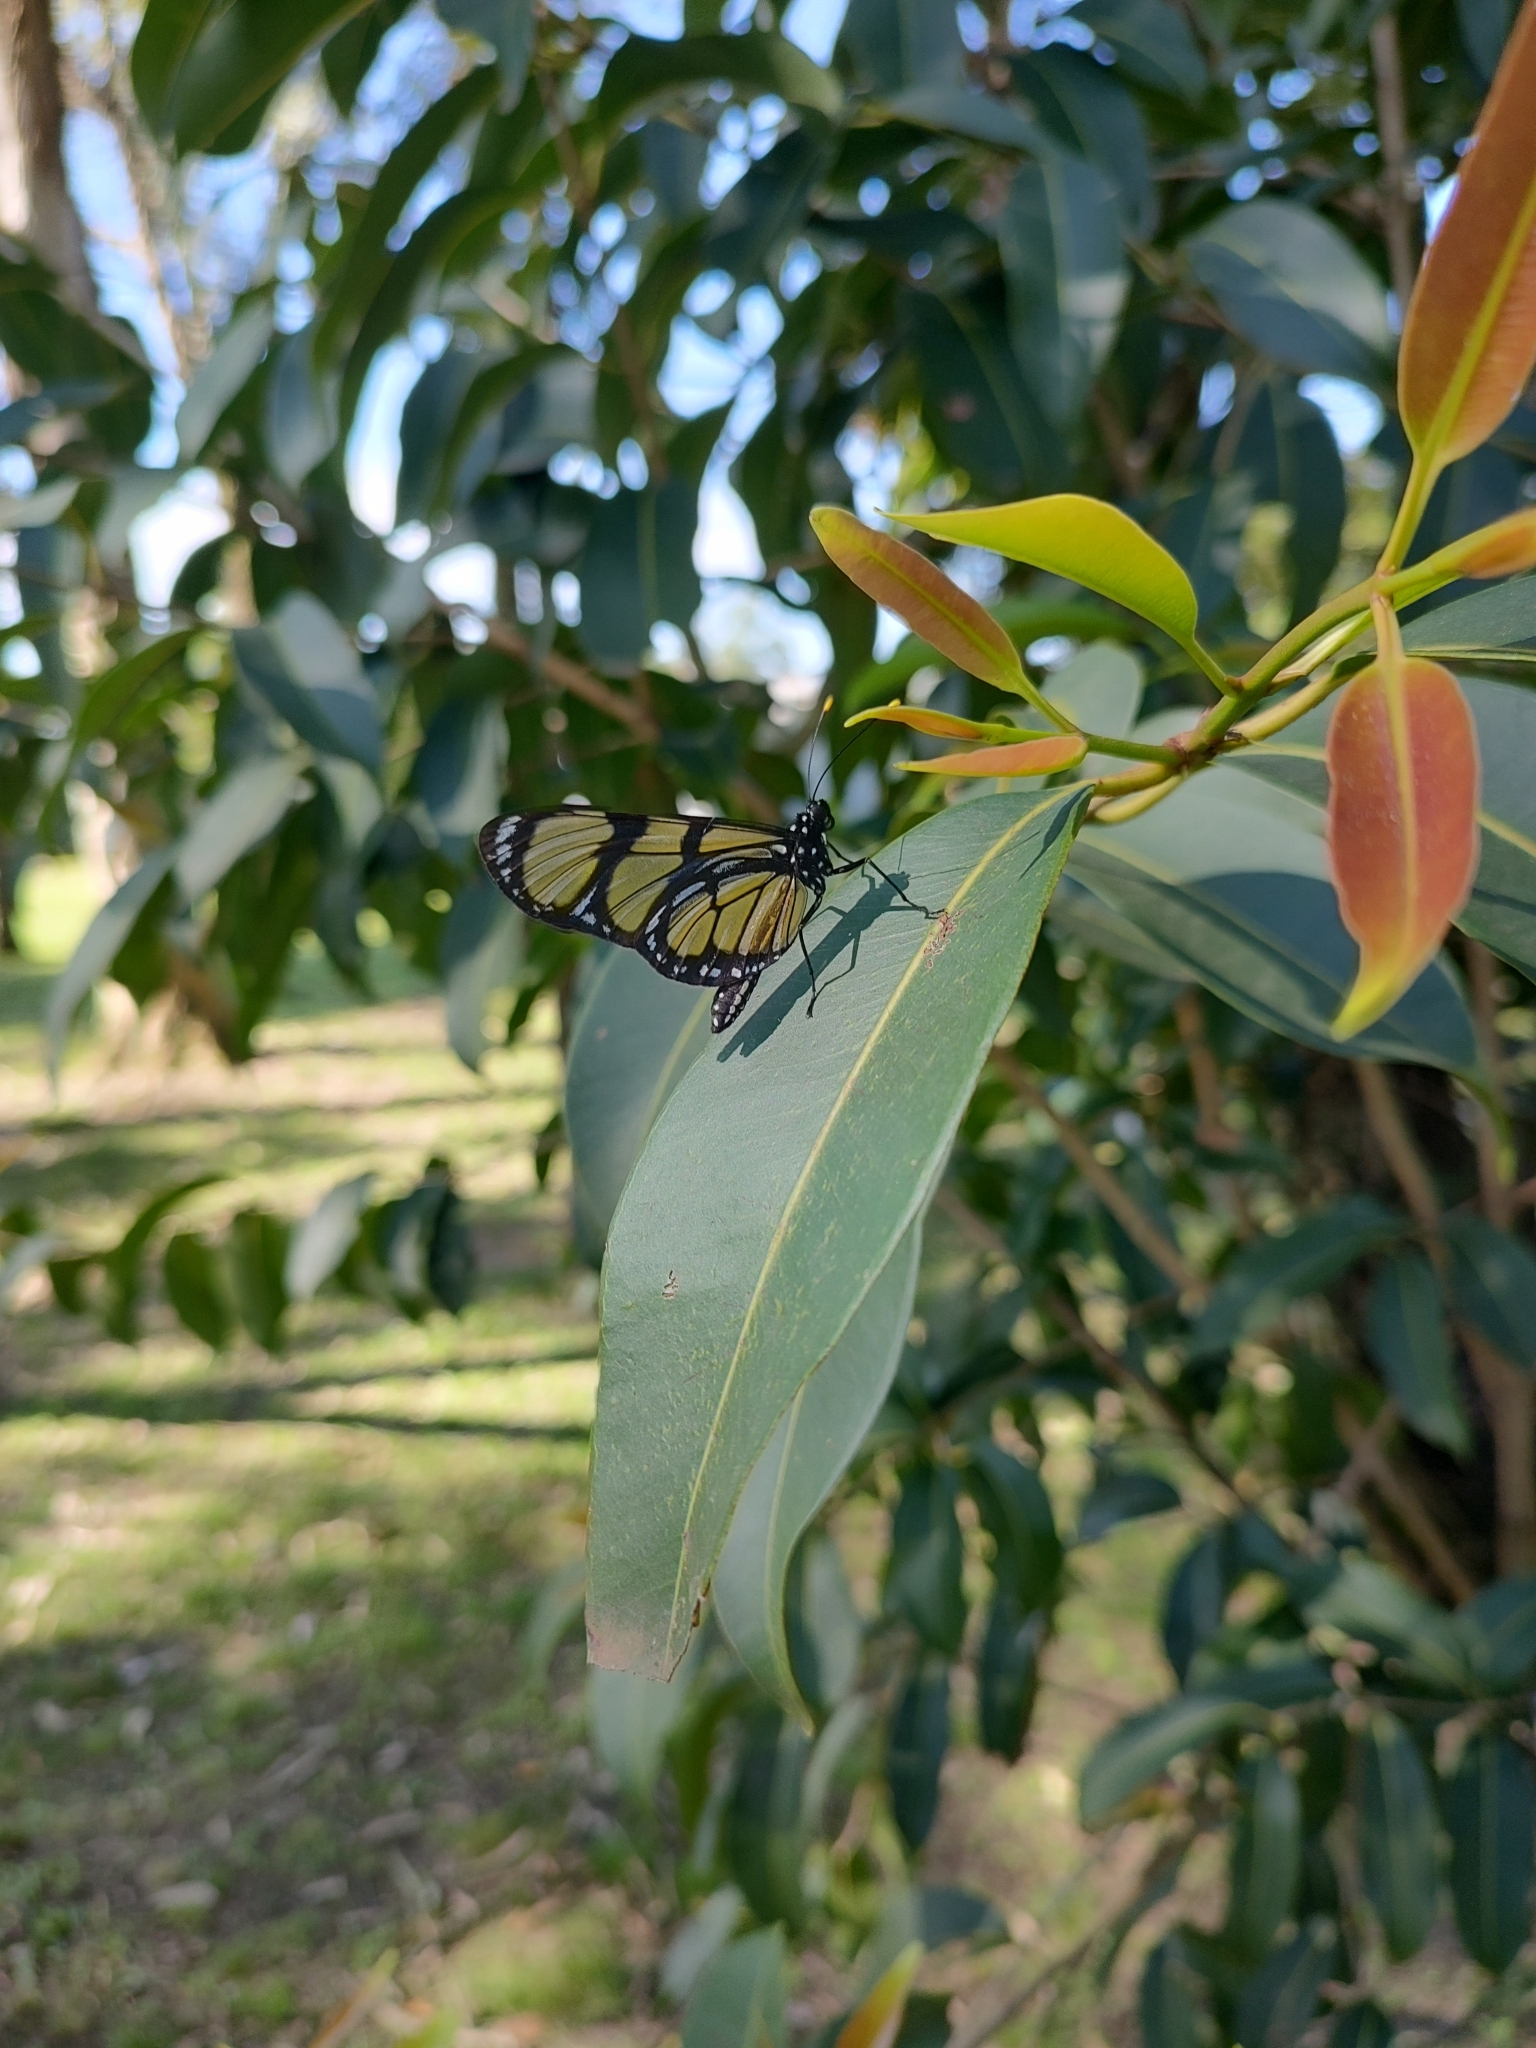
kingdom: Animalia
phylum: Arthropoda
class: Insecta
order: Lepidoptera
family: Nymphalidae
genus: Methona
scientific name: Methona themisto
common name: Themisto amberwing
